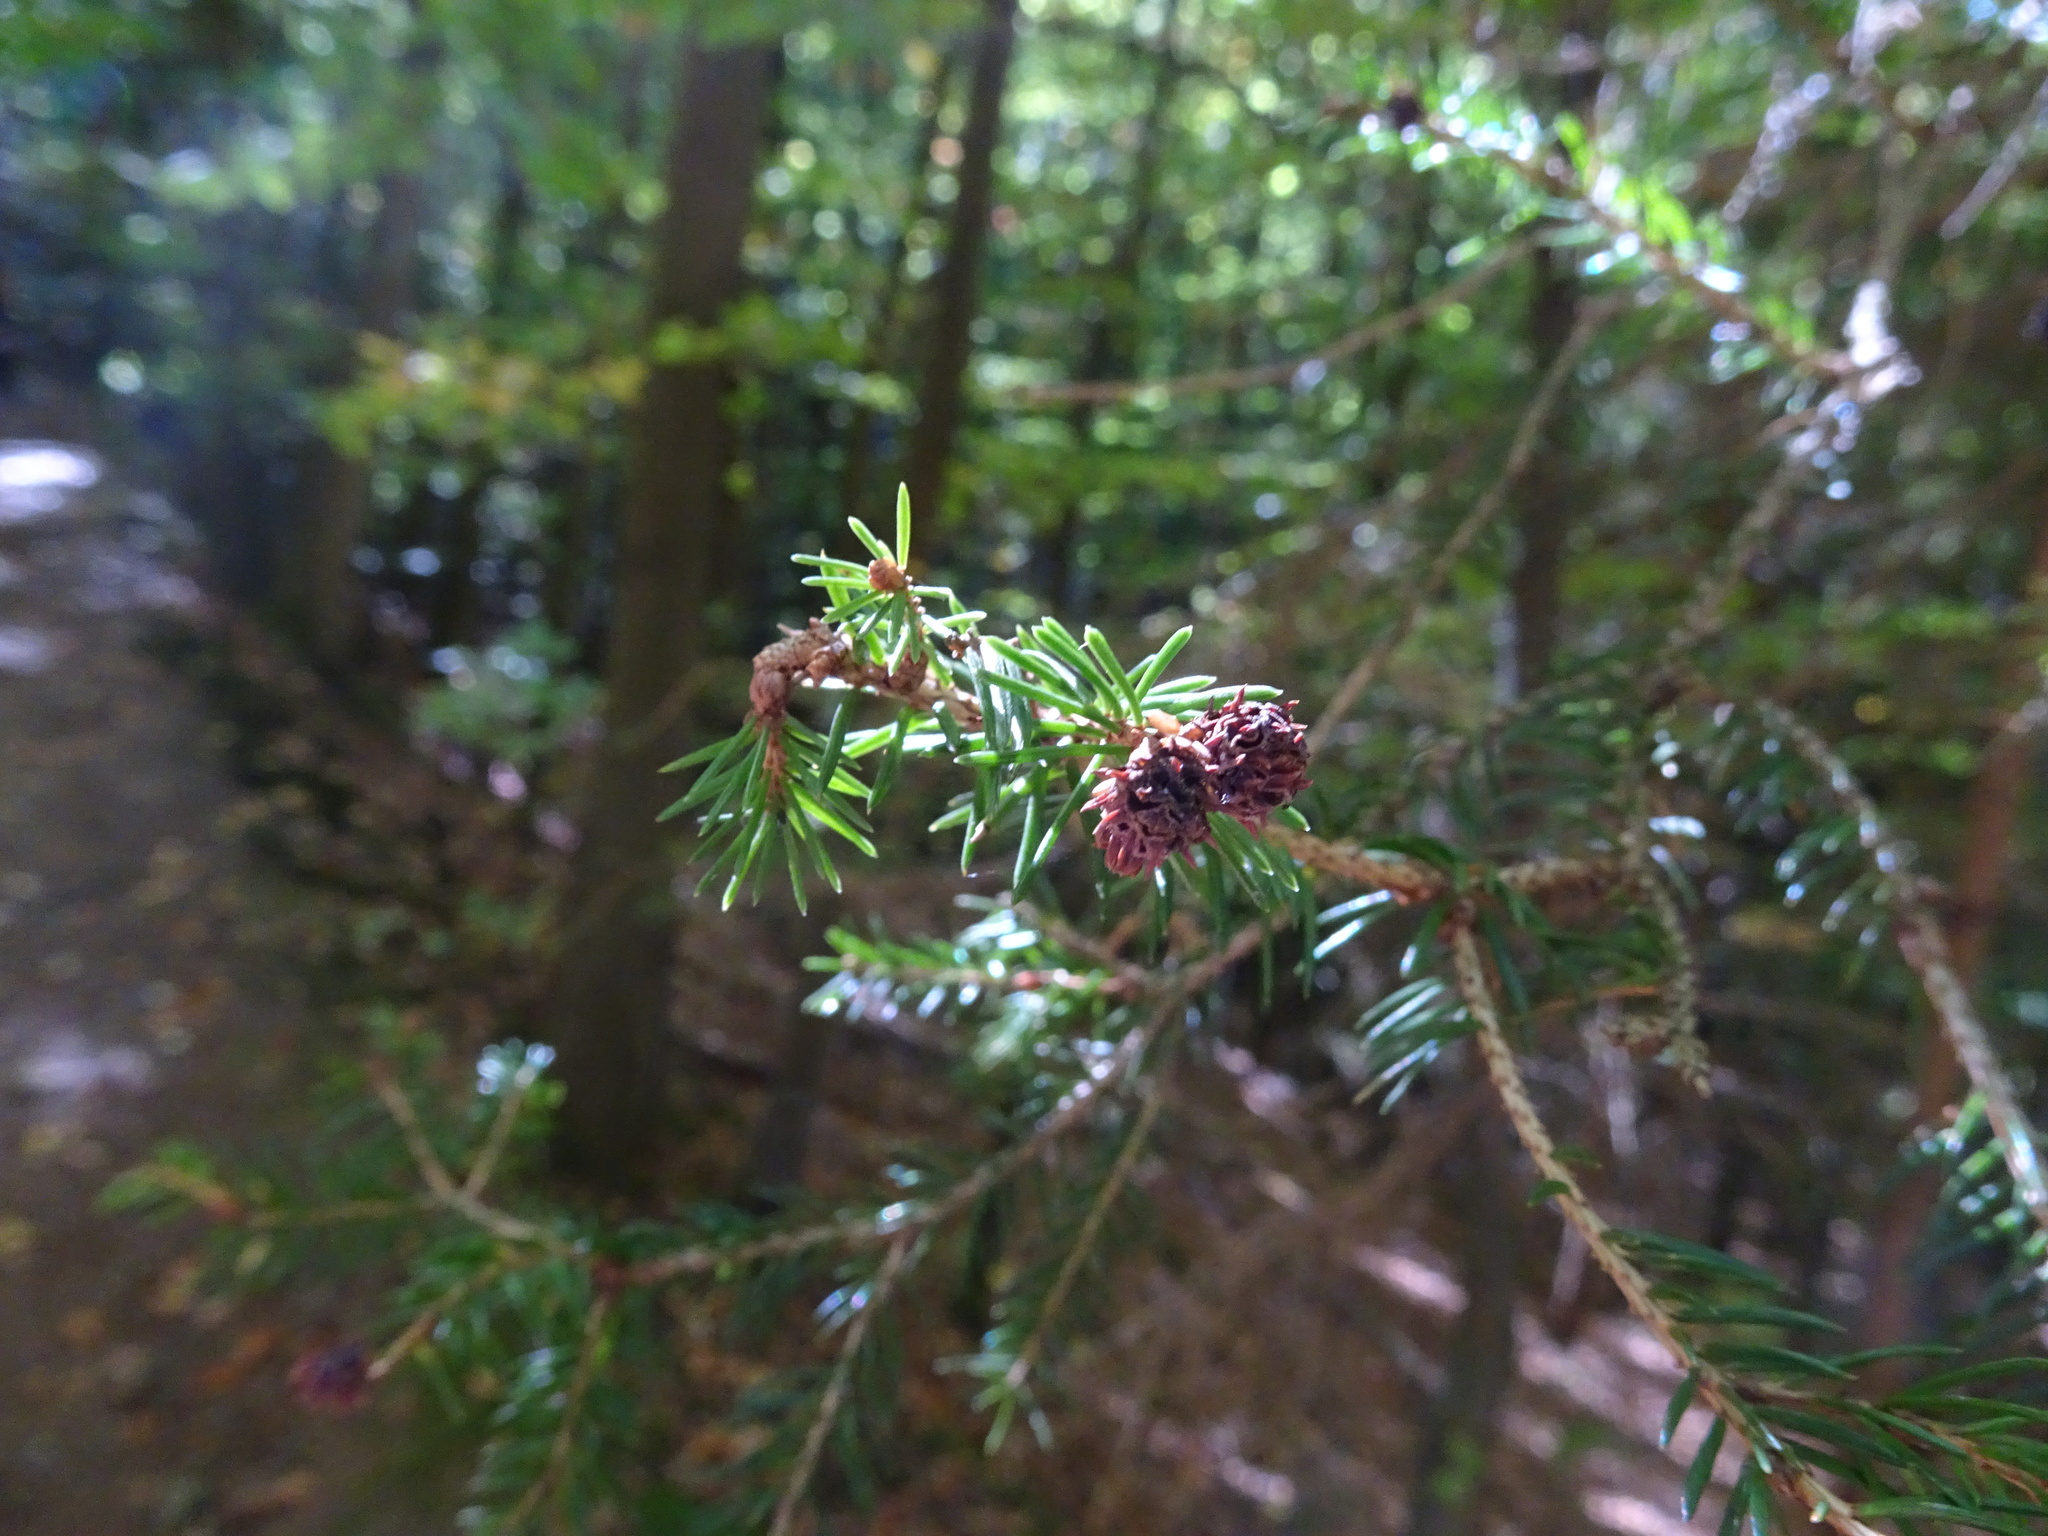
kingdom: Plantae
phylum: Tracheophyta
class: Pinopsida
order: Pinales
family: Pinaceae
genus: Picea
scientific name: Picea abies
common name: Norway spruce
